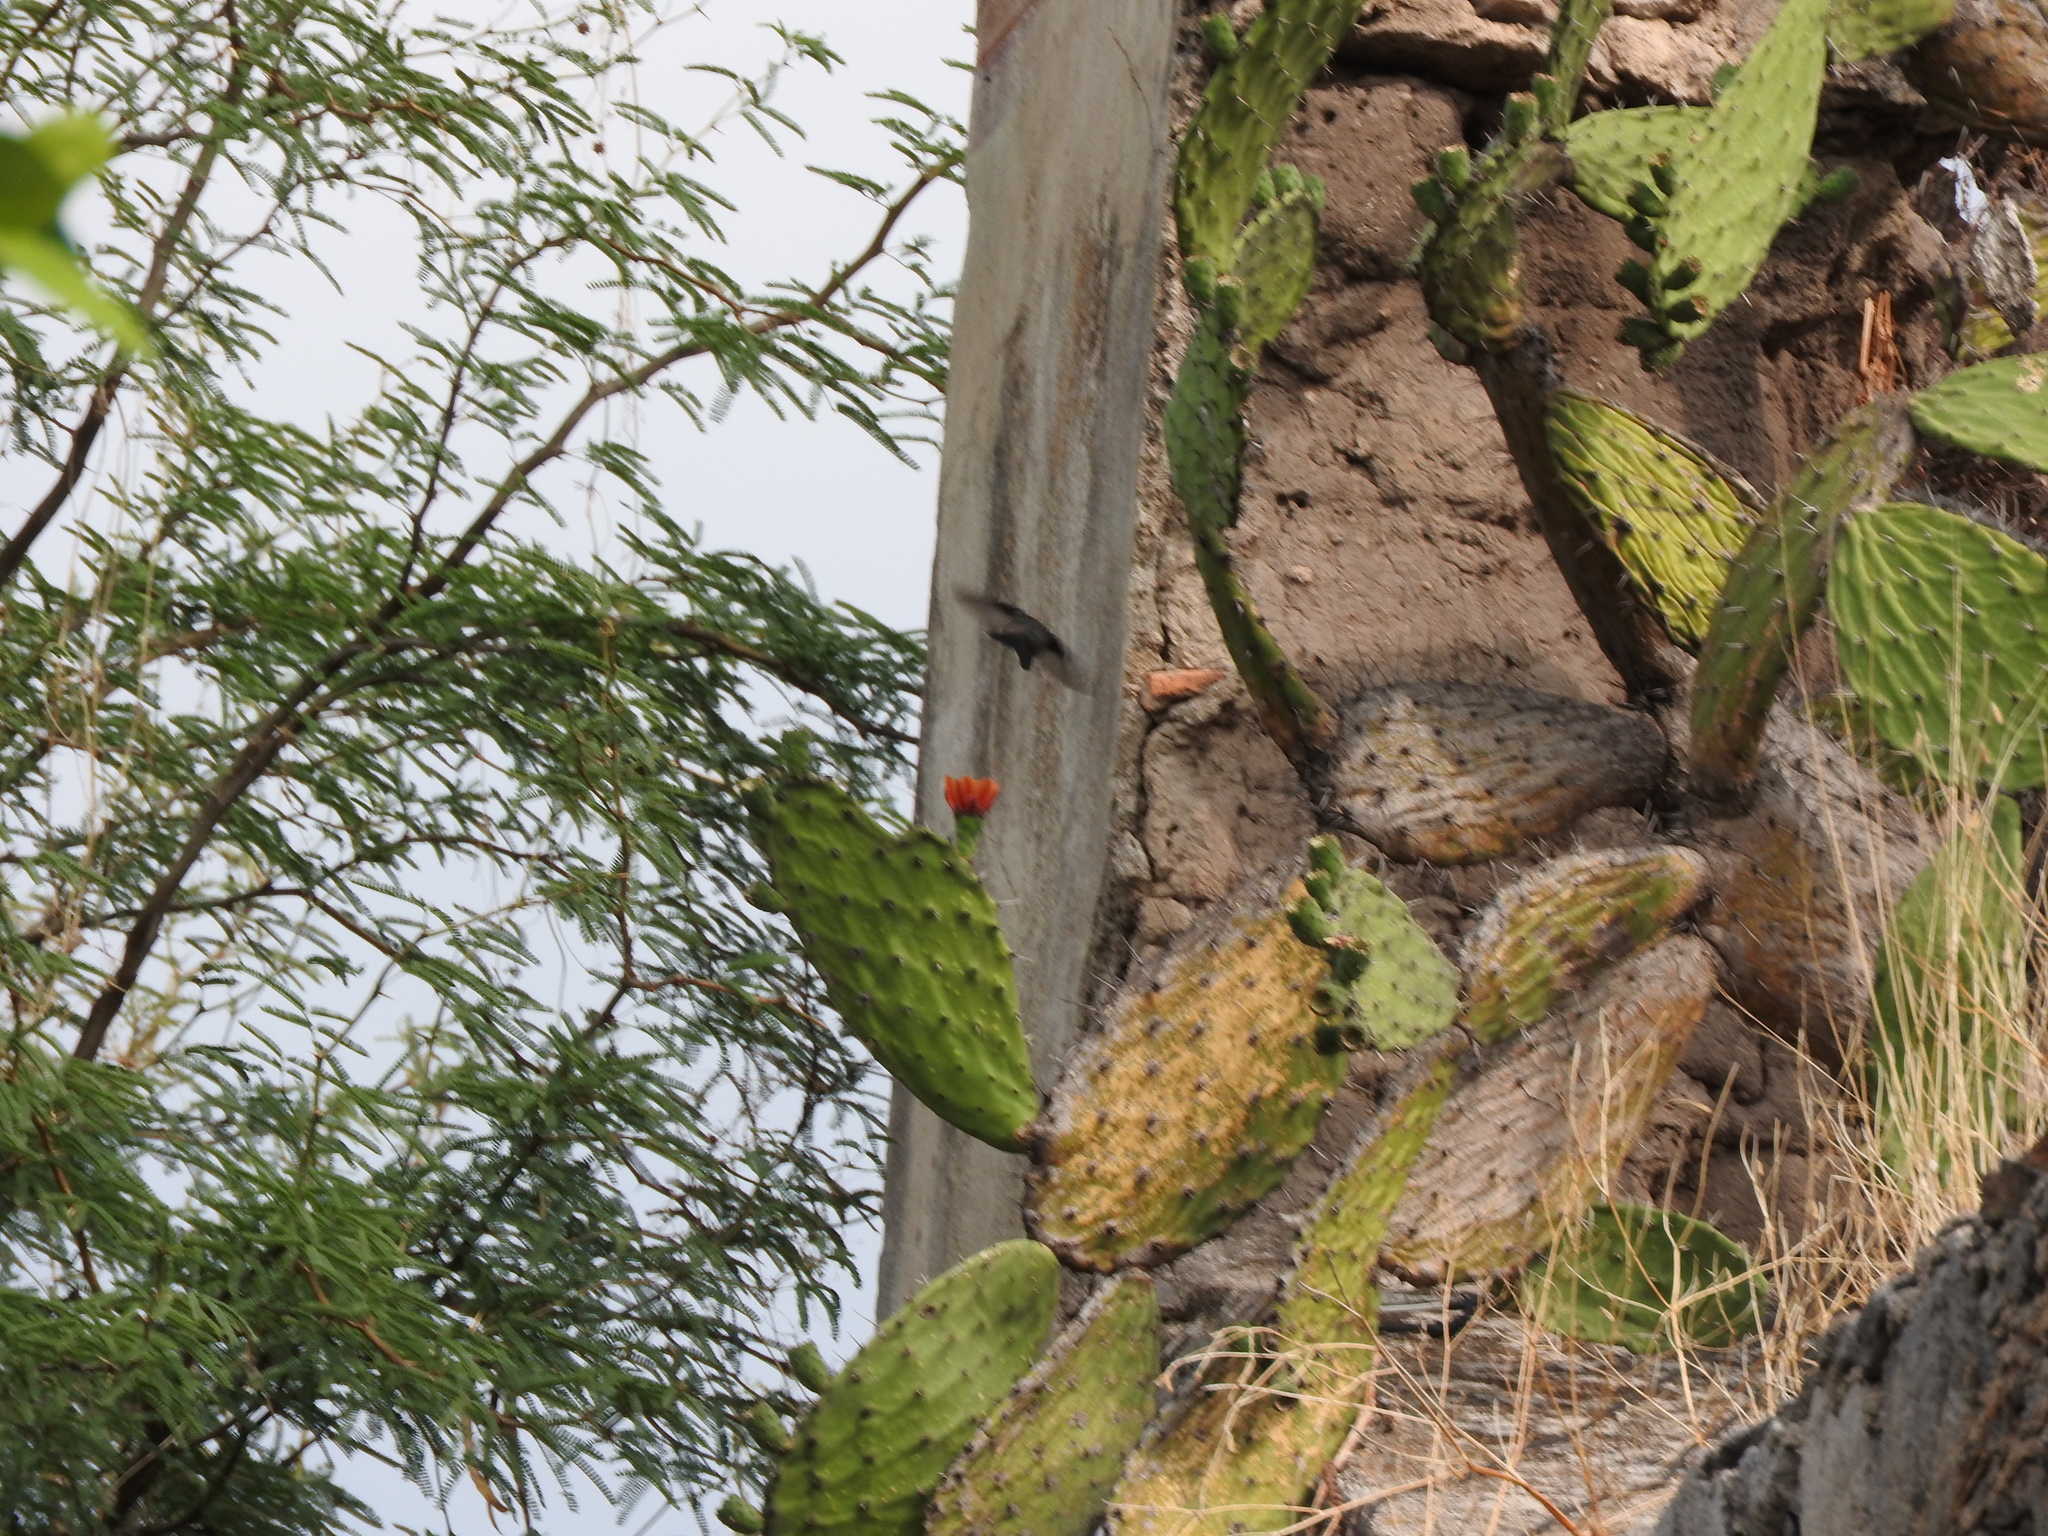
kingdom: Plantae
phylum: Tracheophyta
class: Magnoliopsida
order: Caryophyllales
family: Cactaceae
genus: Opuntia
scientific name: Opuntia lasiacantha
